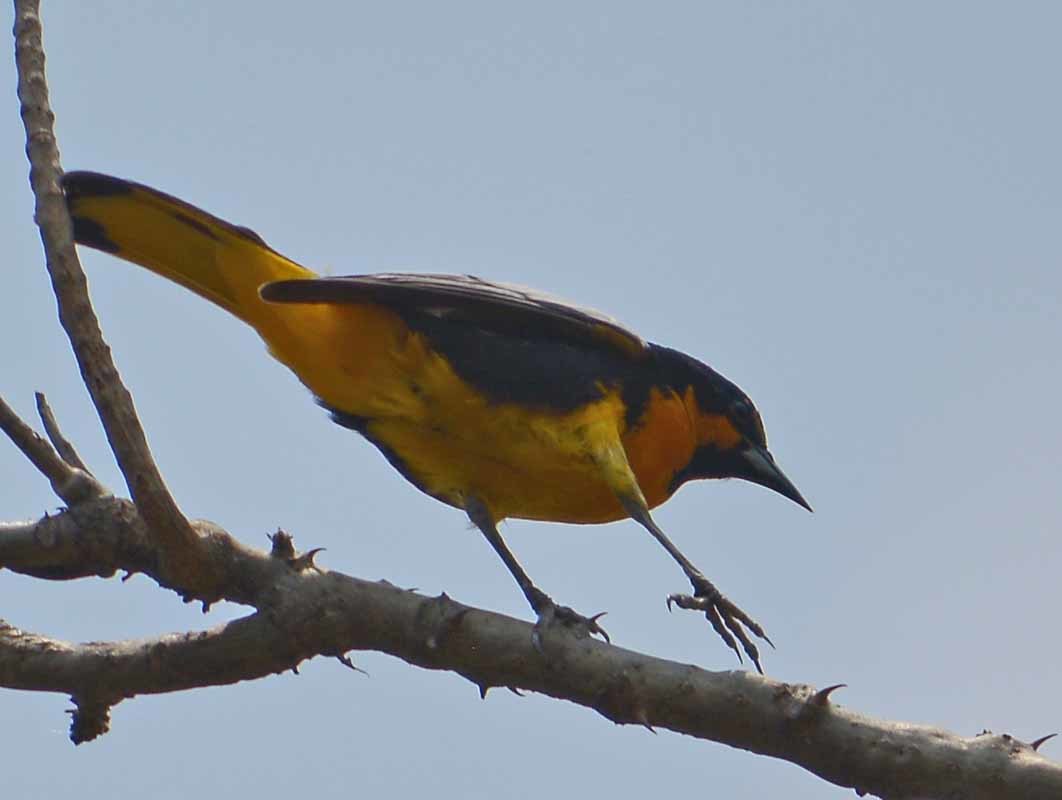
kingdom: Animalia
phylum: Chordata
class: Aves
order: Passeriformes
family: Icteridae
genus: Icterus
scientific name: Icterus abeillei
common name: Black-backed oriole
